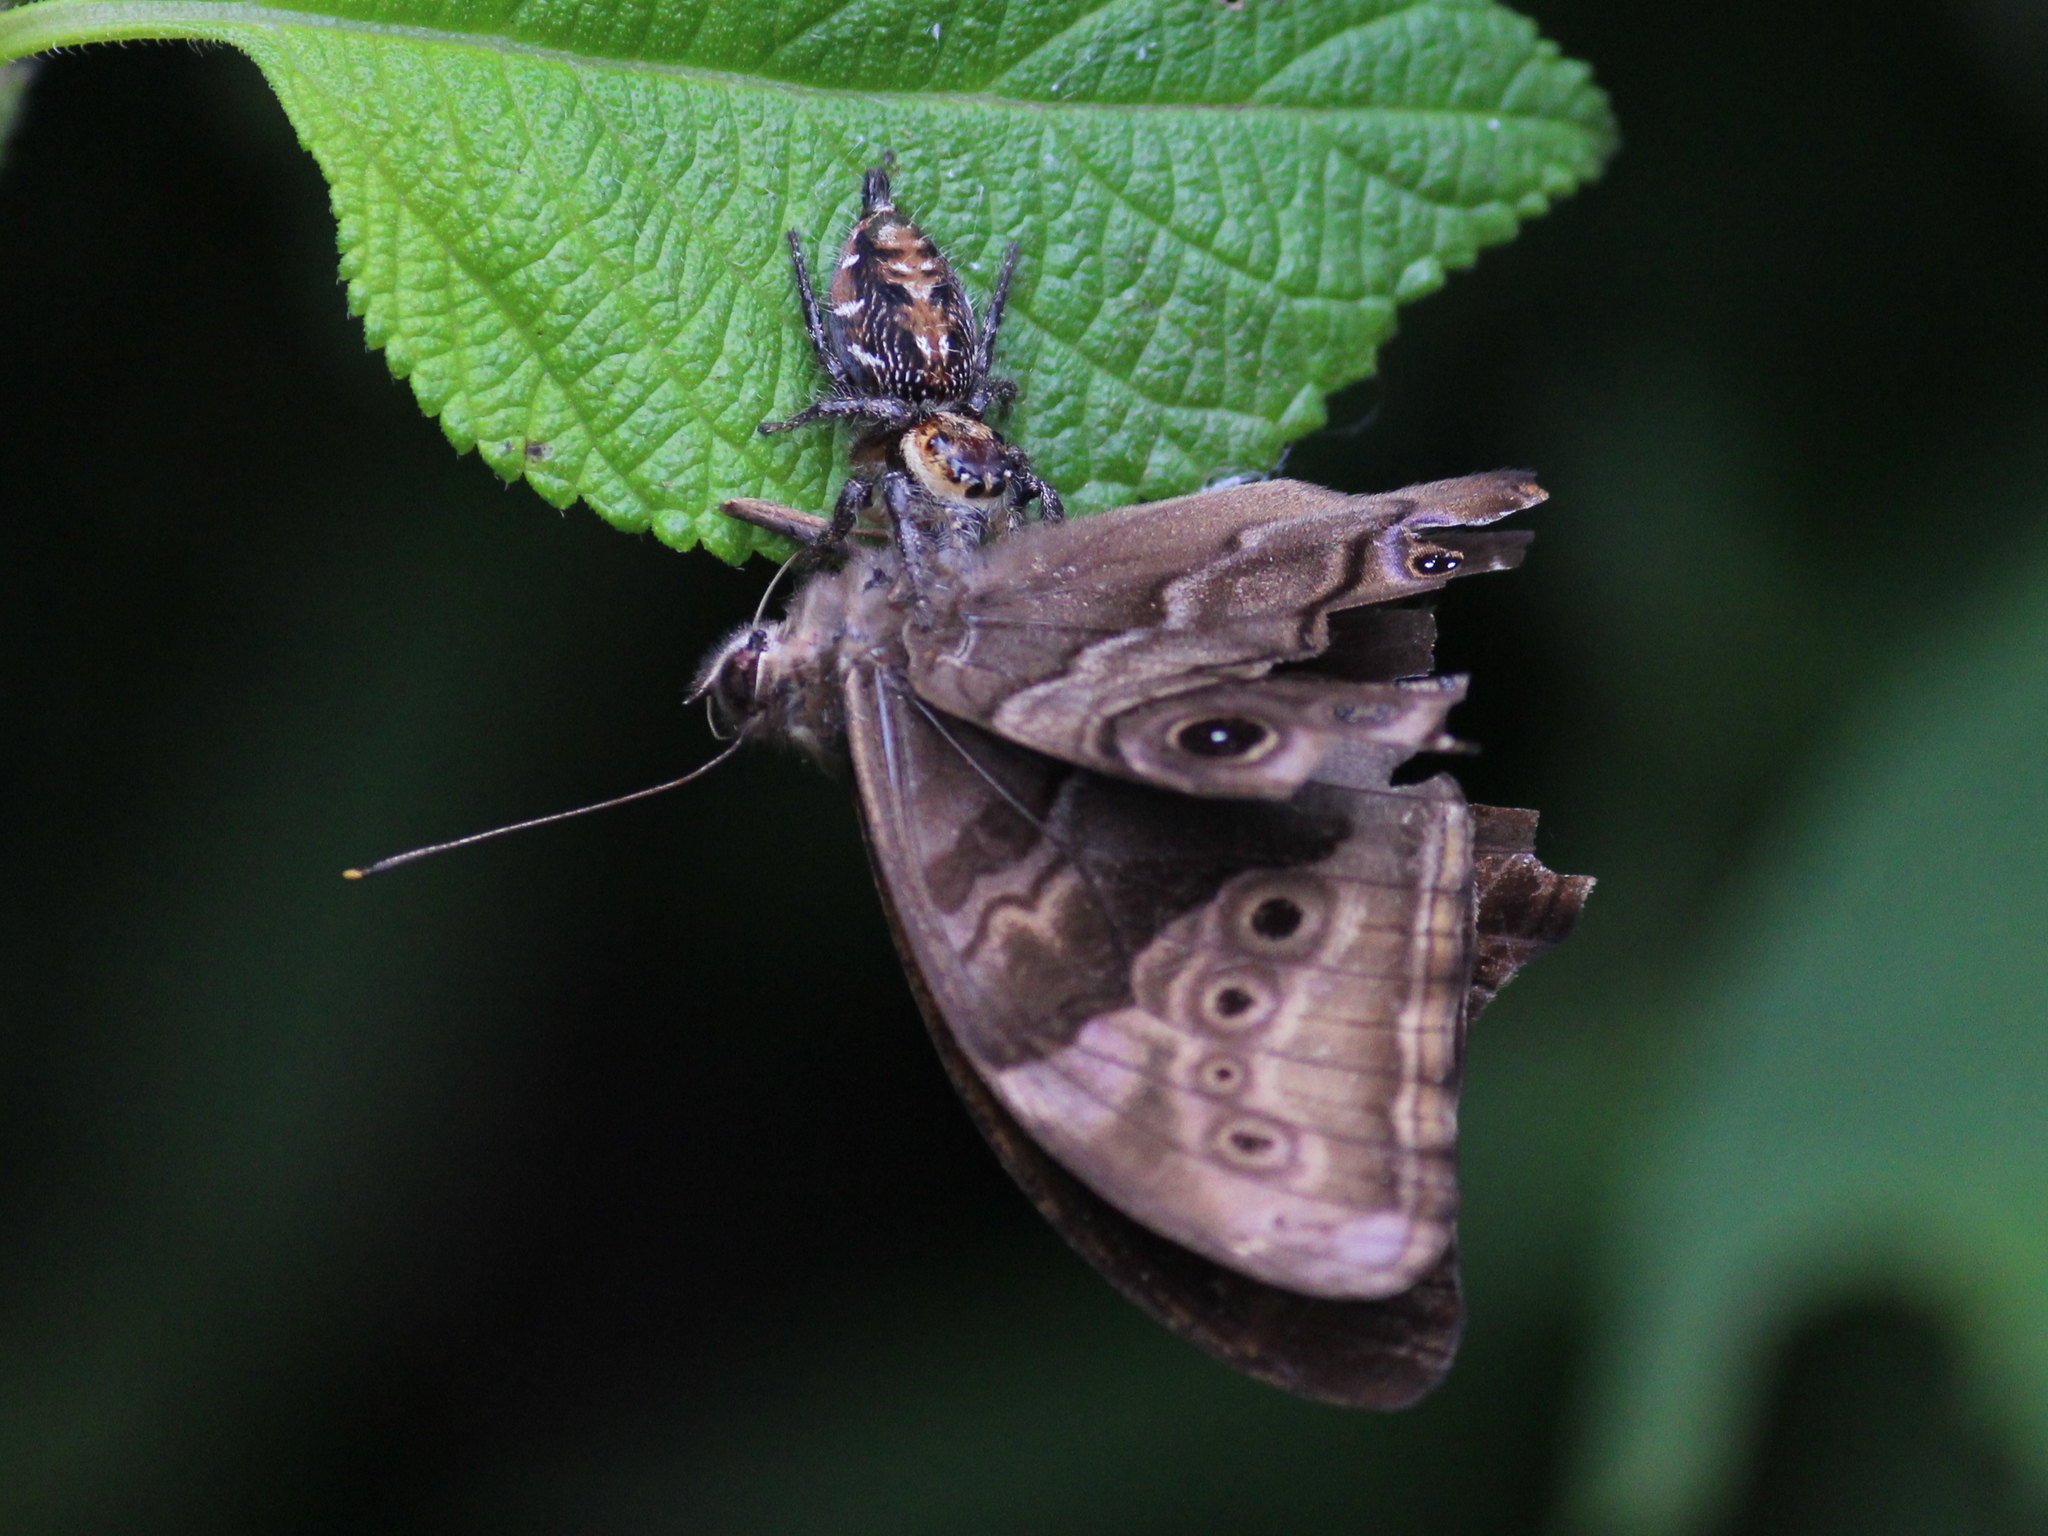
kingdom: Animalia
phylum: Arthropoda
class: Insecta
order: Lepidoptera
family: Nymphalidae
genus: Lethe
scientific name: Lethe drypetis
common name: Tamil treebrown
